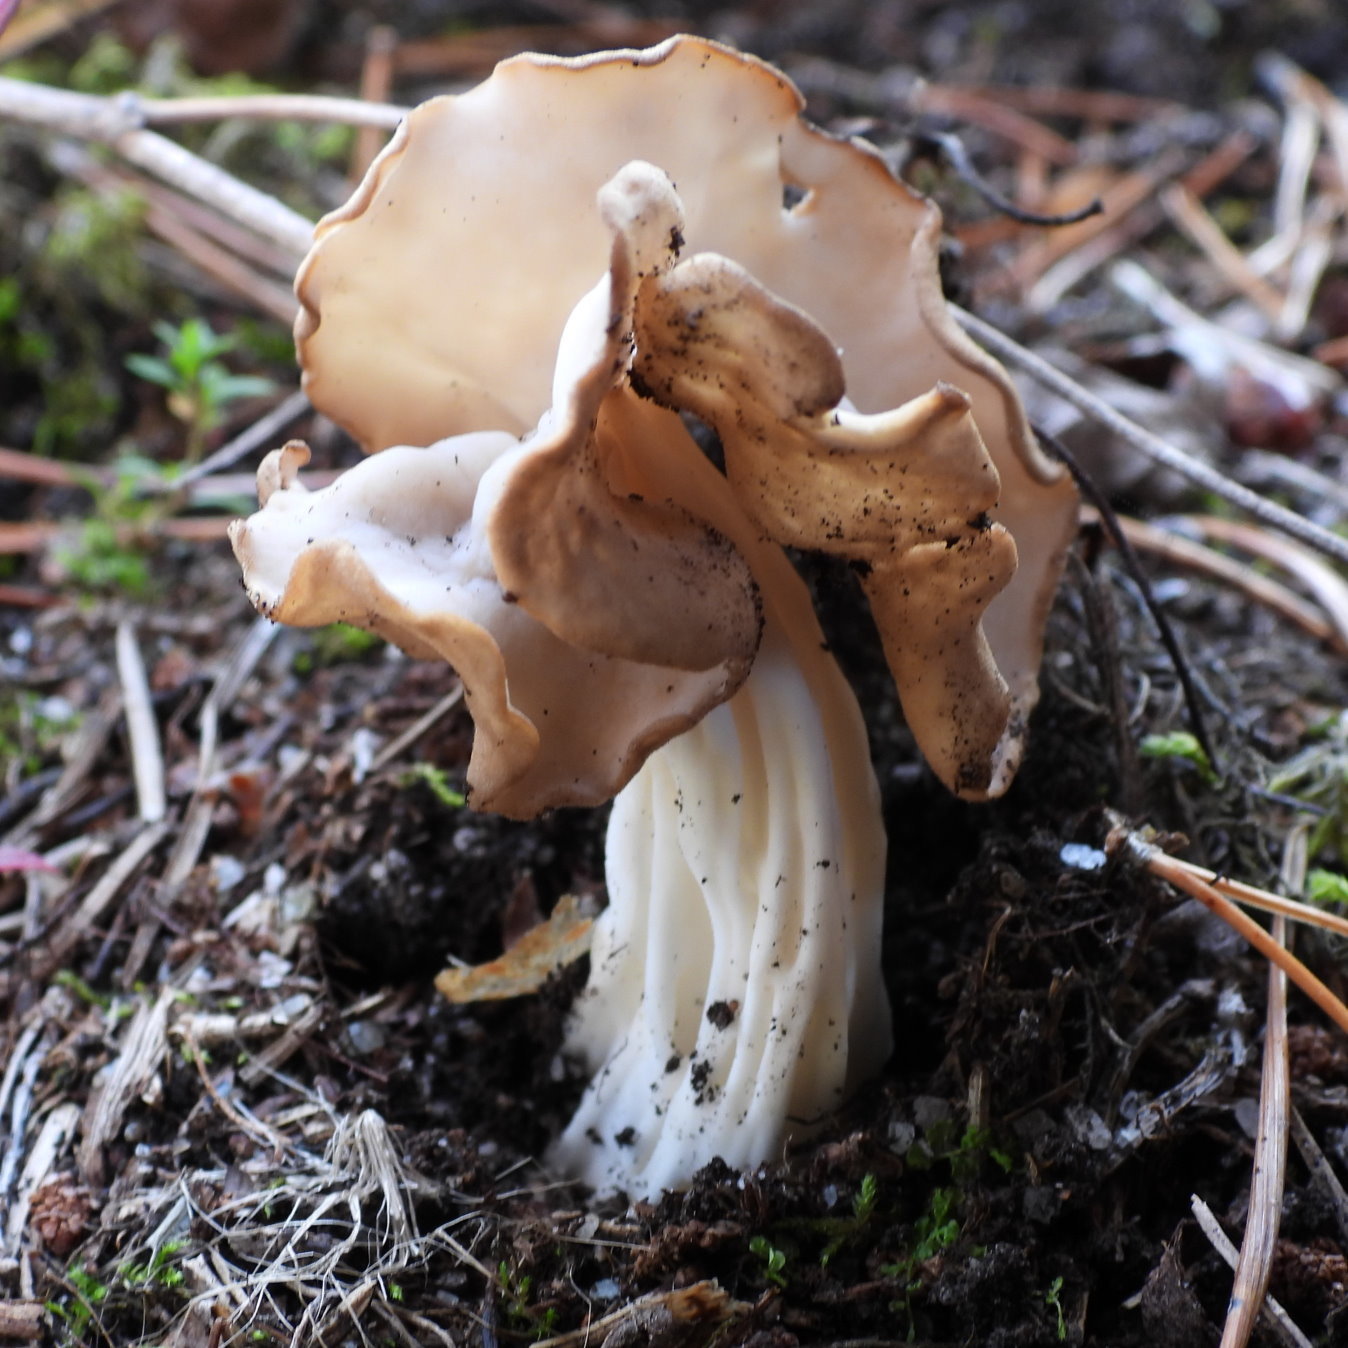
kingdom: Fungi
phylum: Ascomycota
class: Pezizomycetes
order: Pezizales
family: Helvellaceae
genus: Helvella
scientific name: Helvella crispa
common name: White saddle
